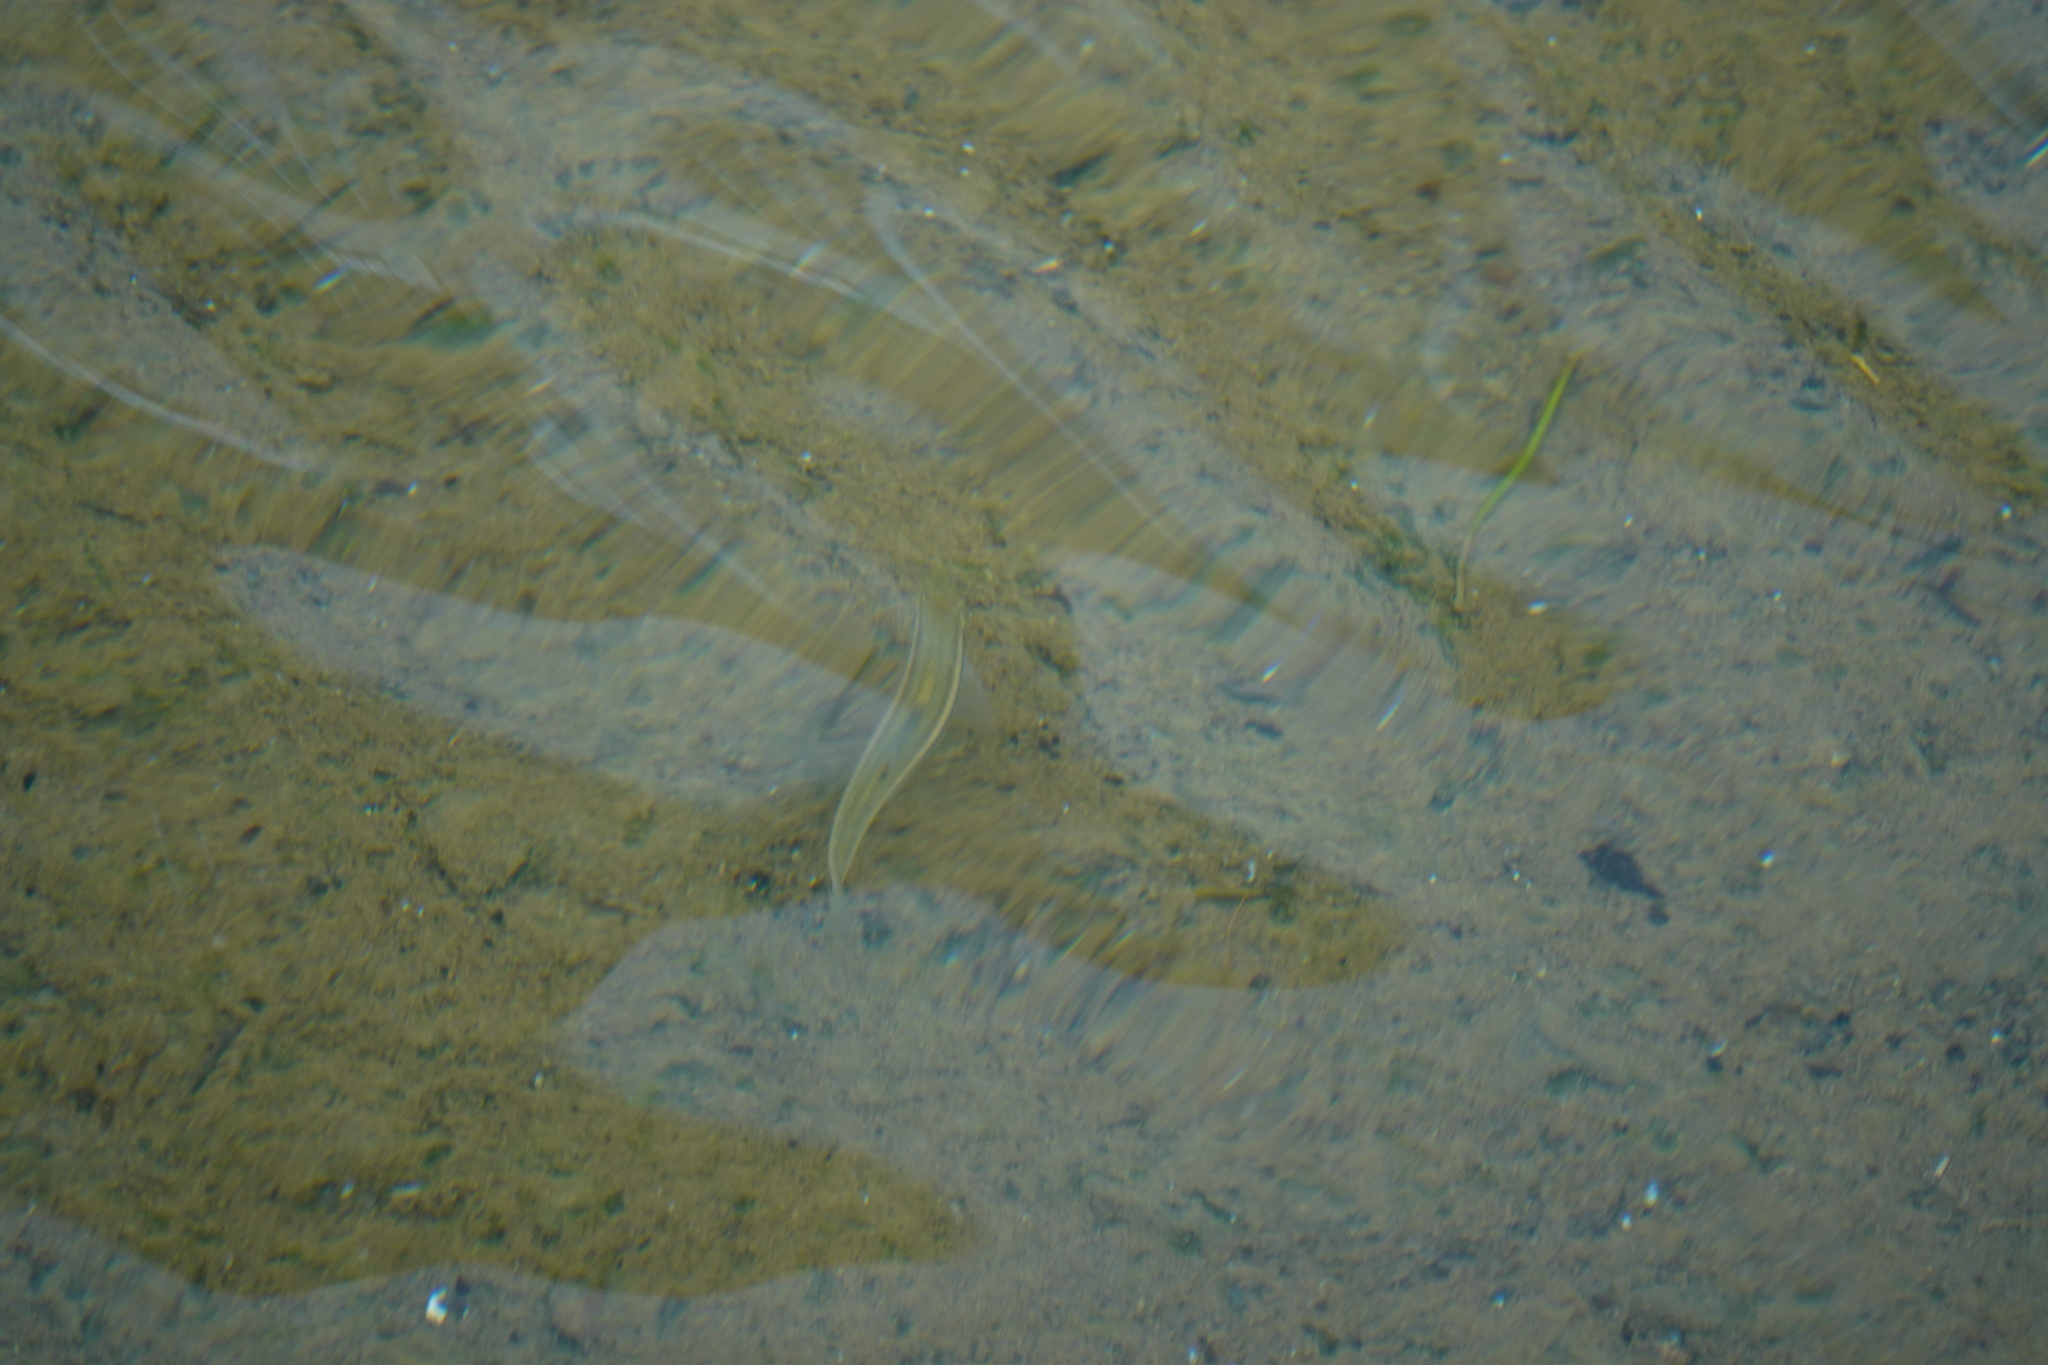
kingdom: Animalia
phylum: Chordata
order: Cypriniformes
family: Cyprinidae
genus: Candidia
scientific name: Candidia barbata
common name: Lake candidus dace
